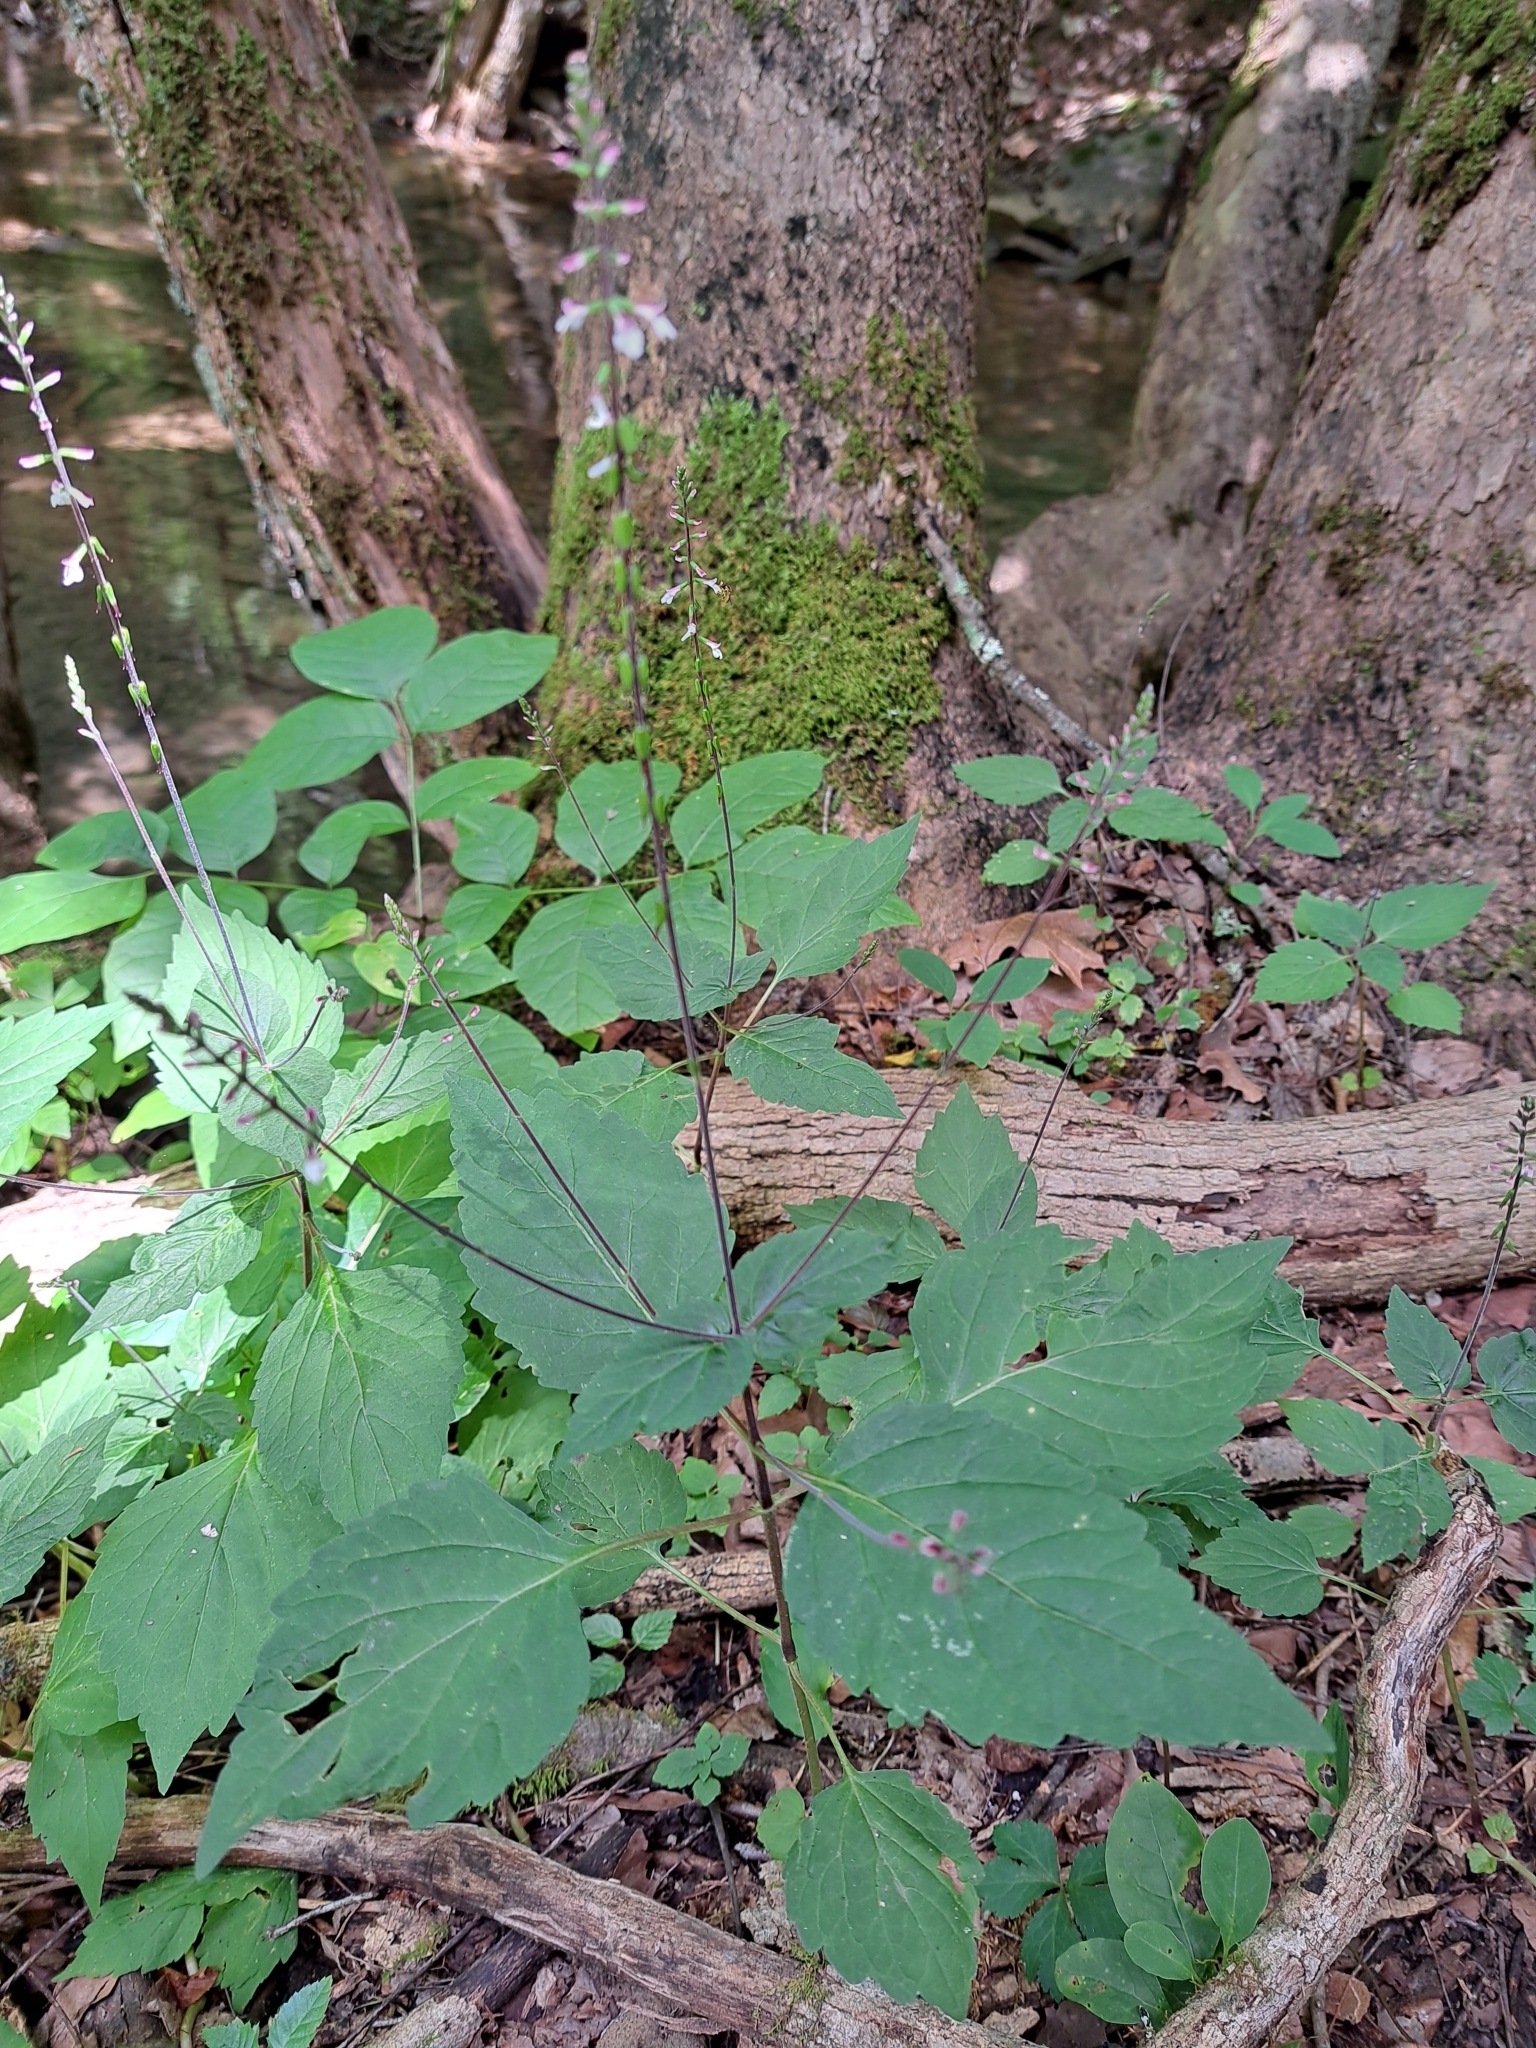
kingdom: Plantae
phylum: Tracheophyta
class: Magnoliopsida
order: Lamiales
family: Phrymaceae
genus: Phryma
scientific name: Phryma leptostachya
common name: American lopseed
